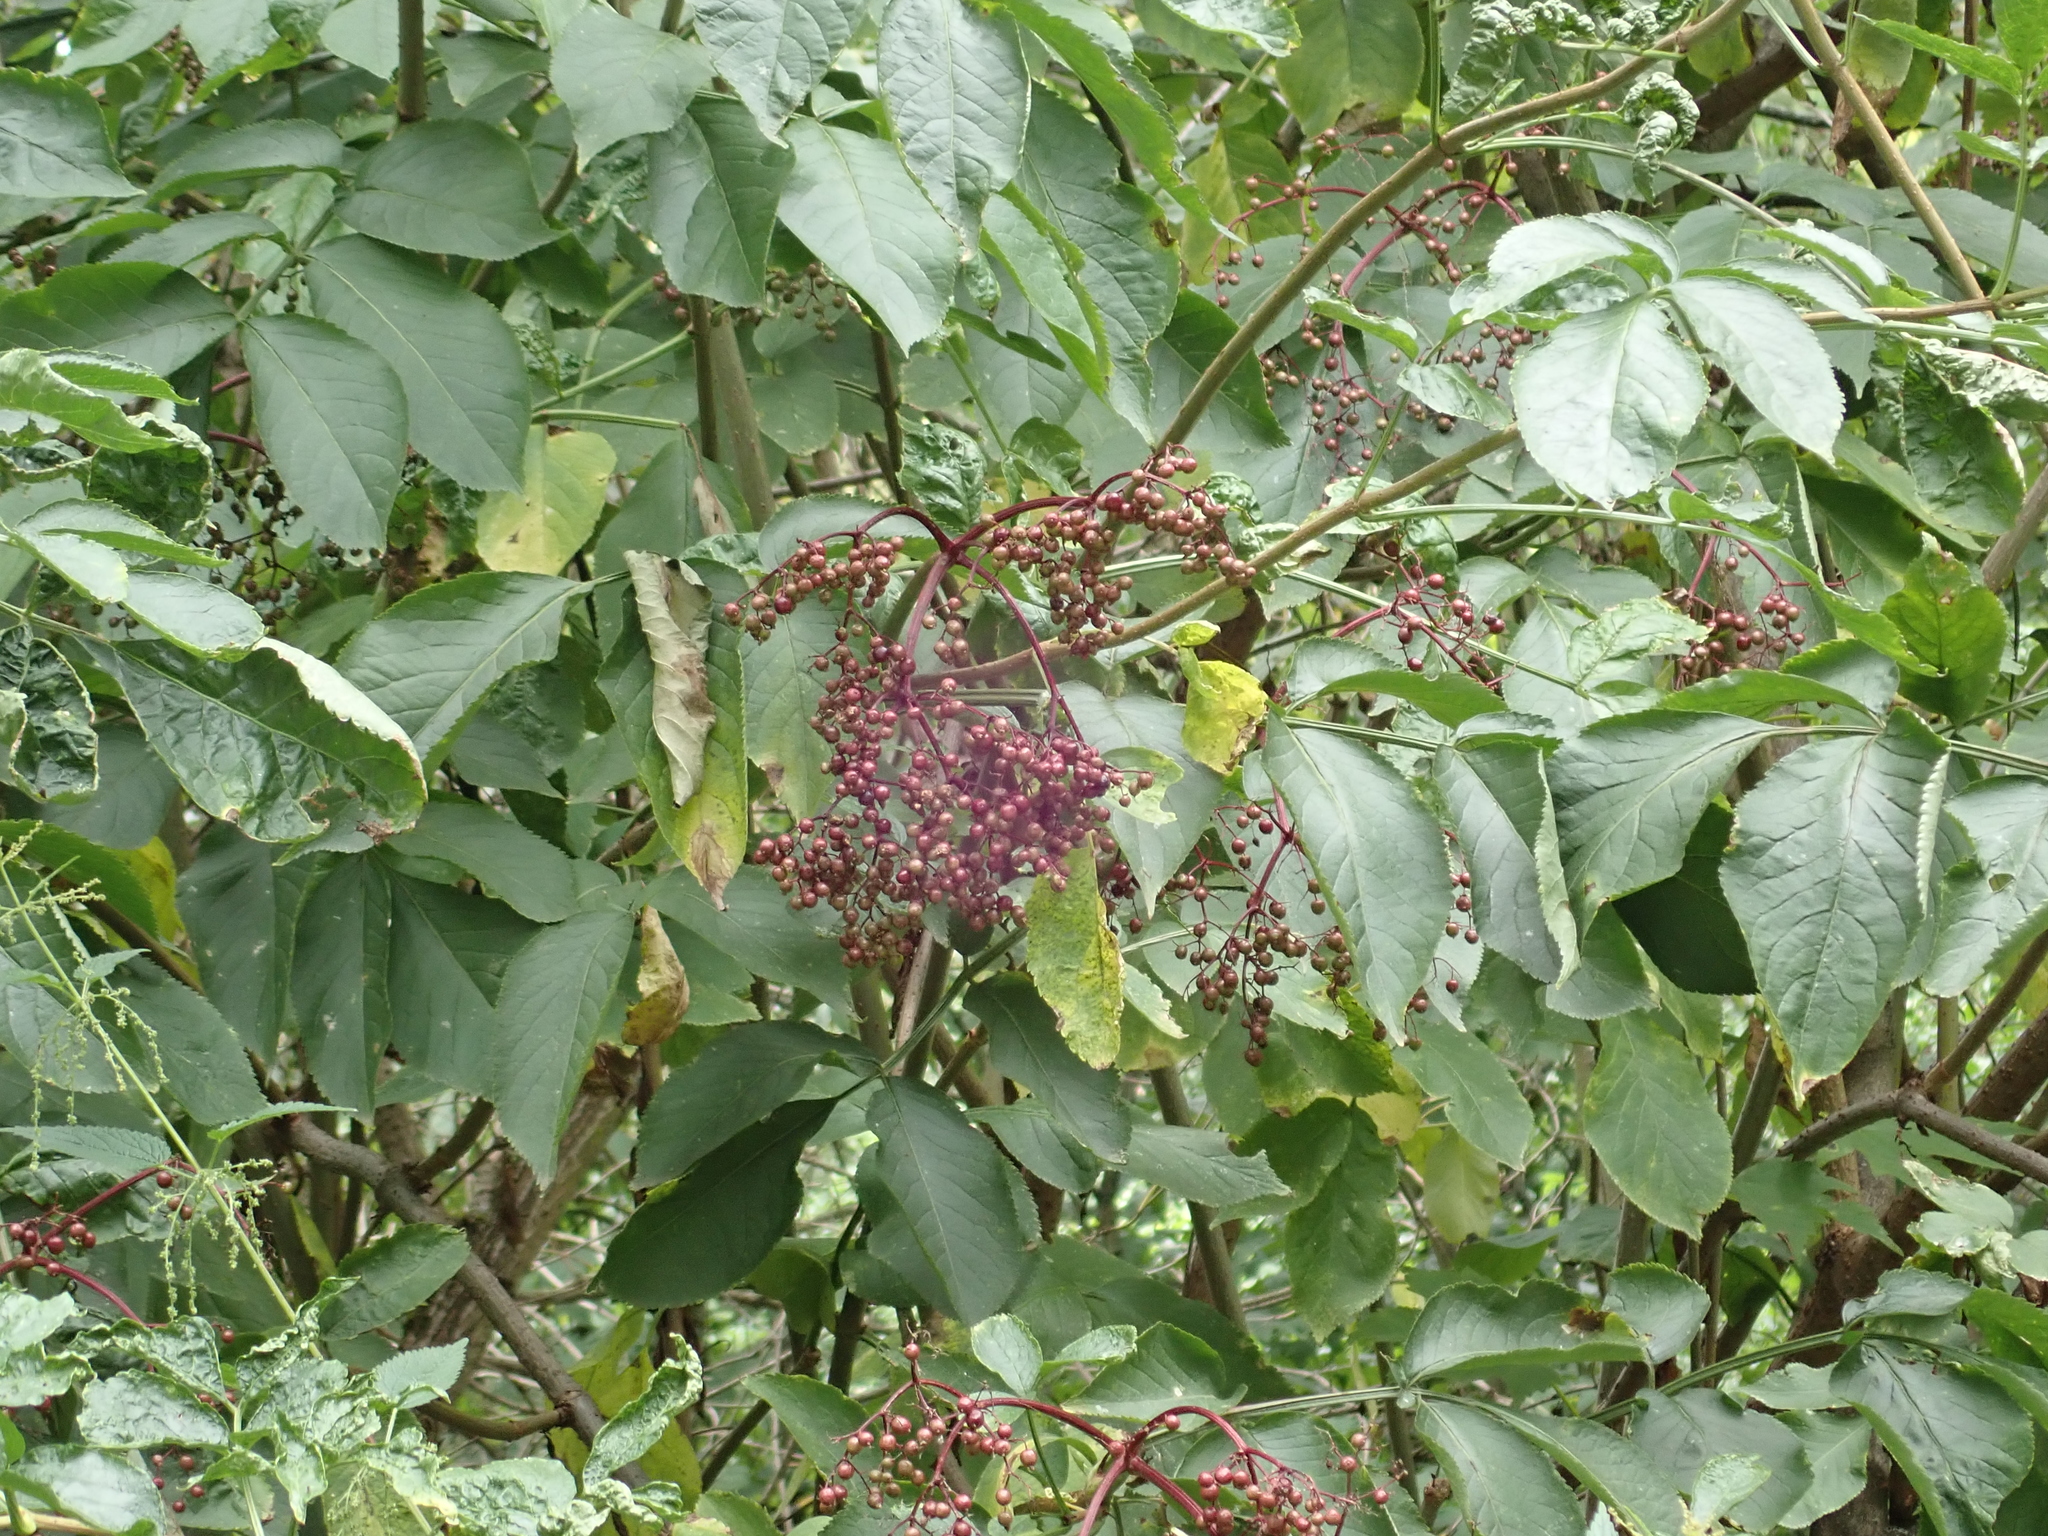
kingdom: Plantae
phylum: Tracheophyta
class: Magnoliopsida
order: Dipsacales
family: Viburnaceae
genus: Sambucus
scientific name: Sambucus nigra
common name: Elder
